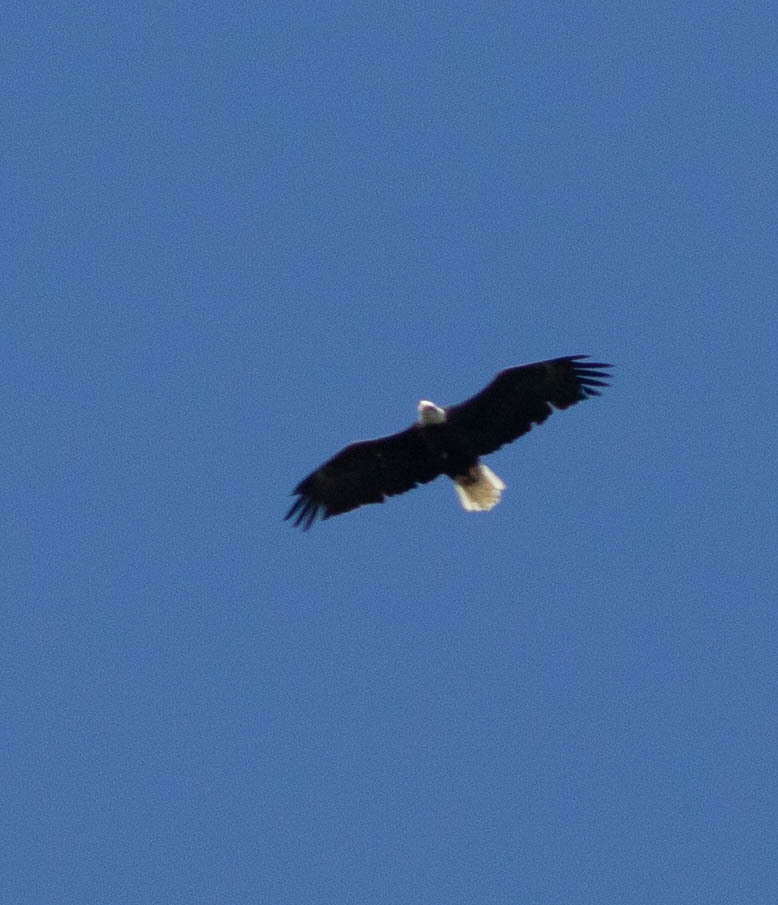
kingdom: Animalia
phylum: Chordata
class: Aves
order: Accipitriformes
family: Accipitridae
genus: Haliaeetus
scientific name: Haliaeetus leucocephalus
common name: Bald eagle
